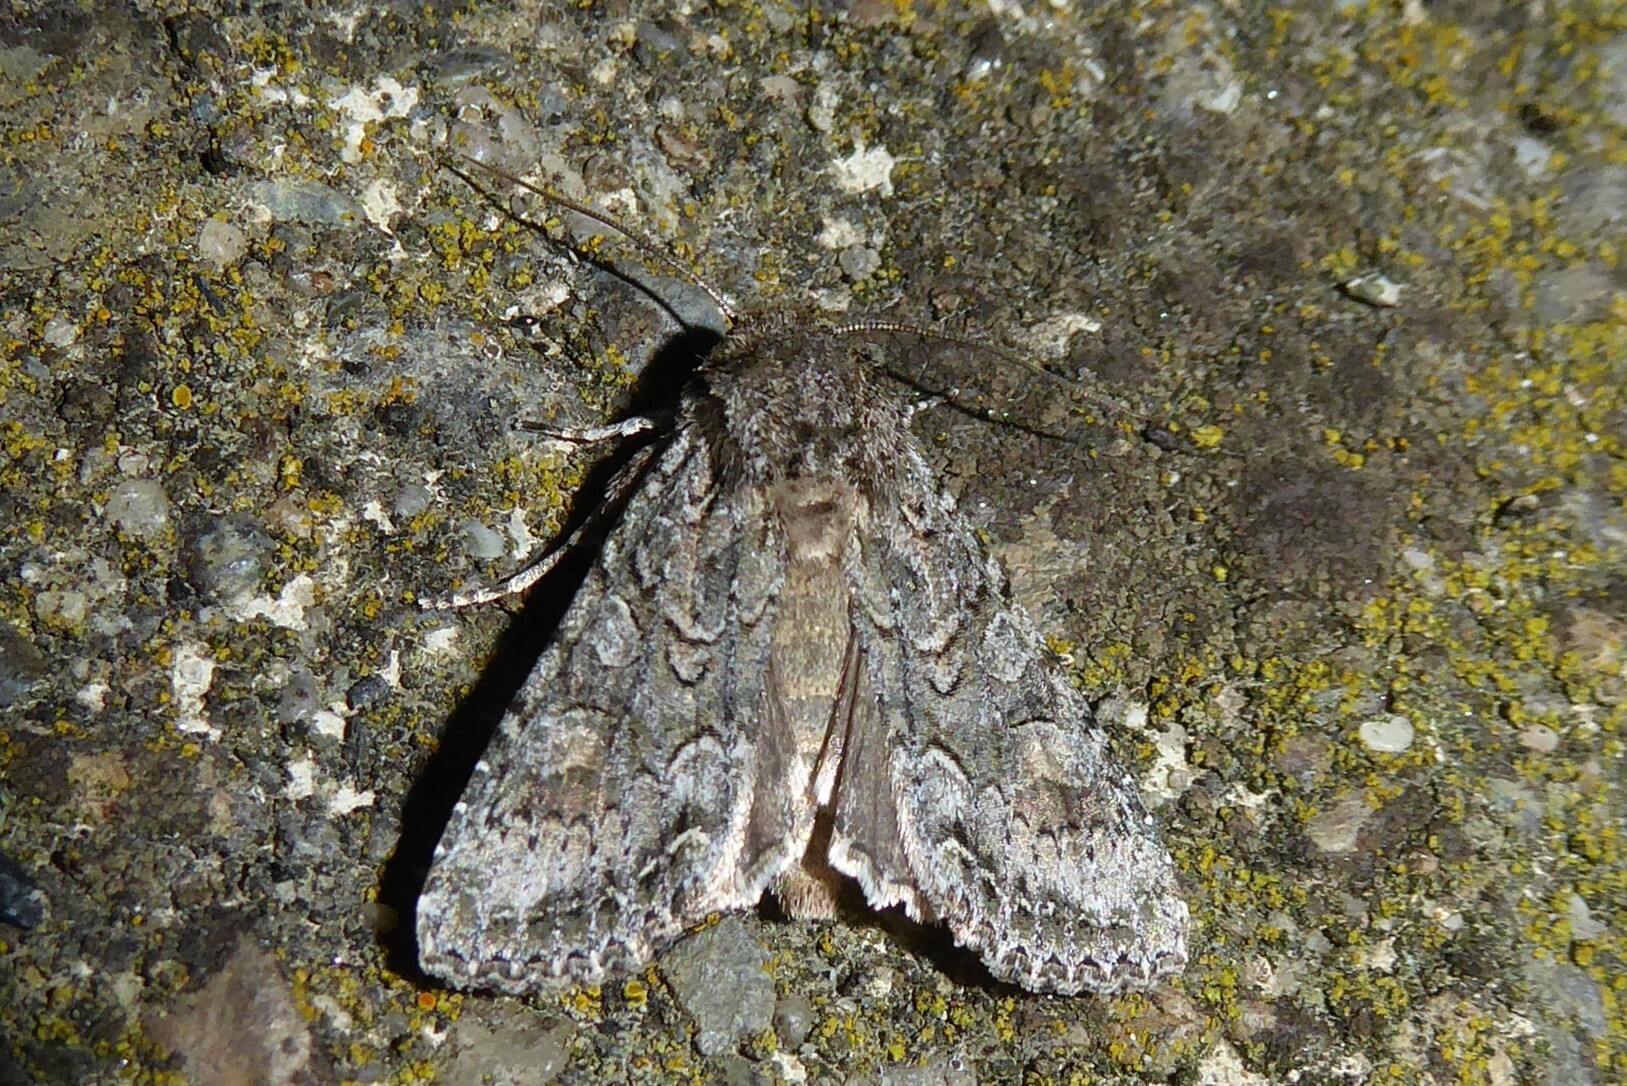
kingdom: Animalia
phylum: Arthropoda
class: Insecta
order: Lepidoptera
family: Noctuidae
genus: Ichneutica
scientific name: Ichneutica mutans
